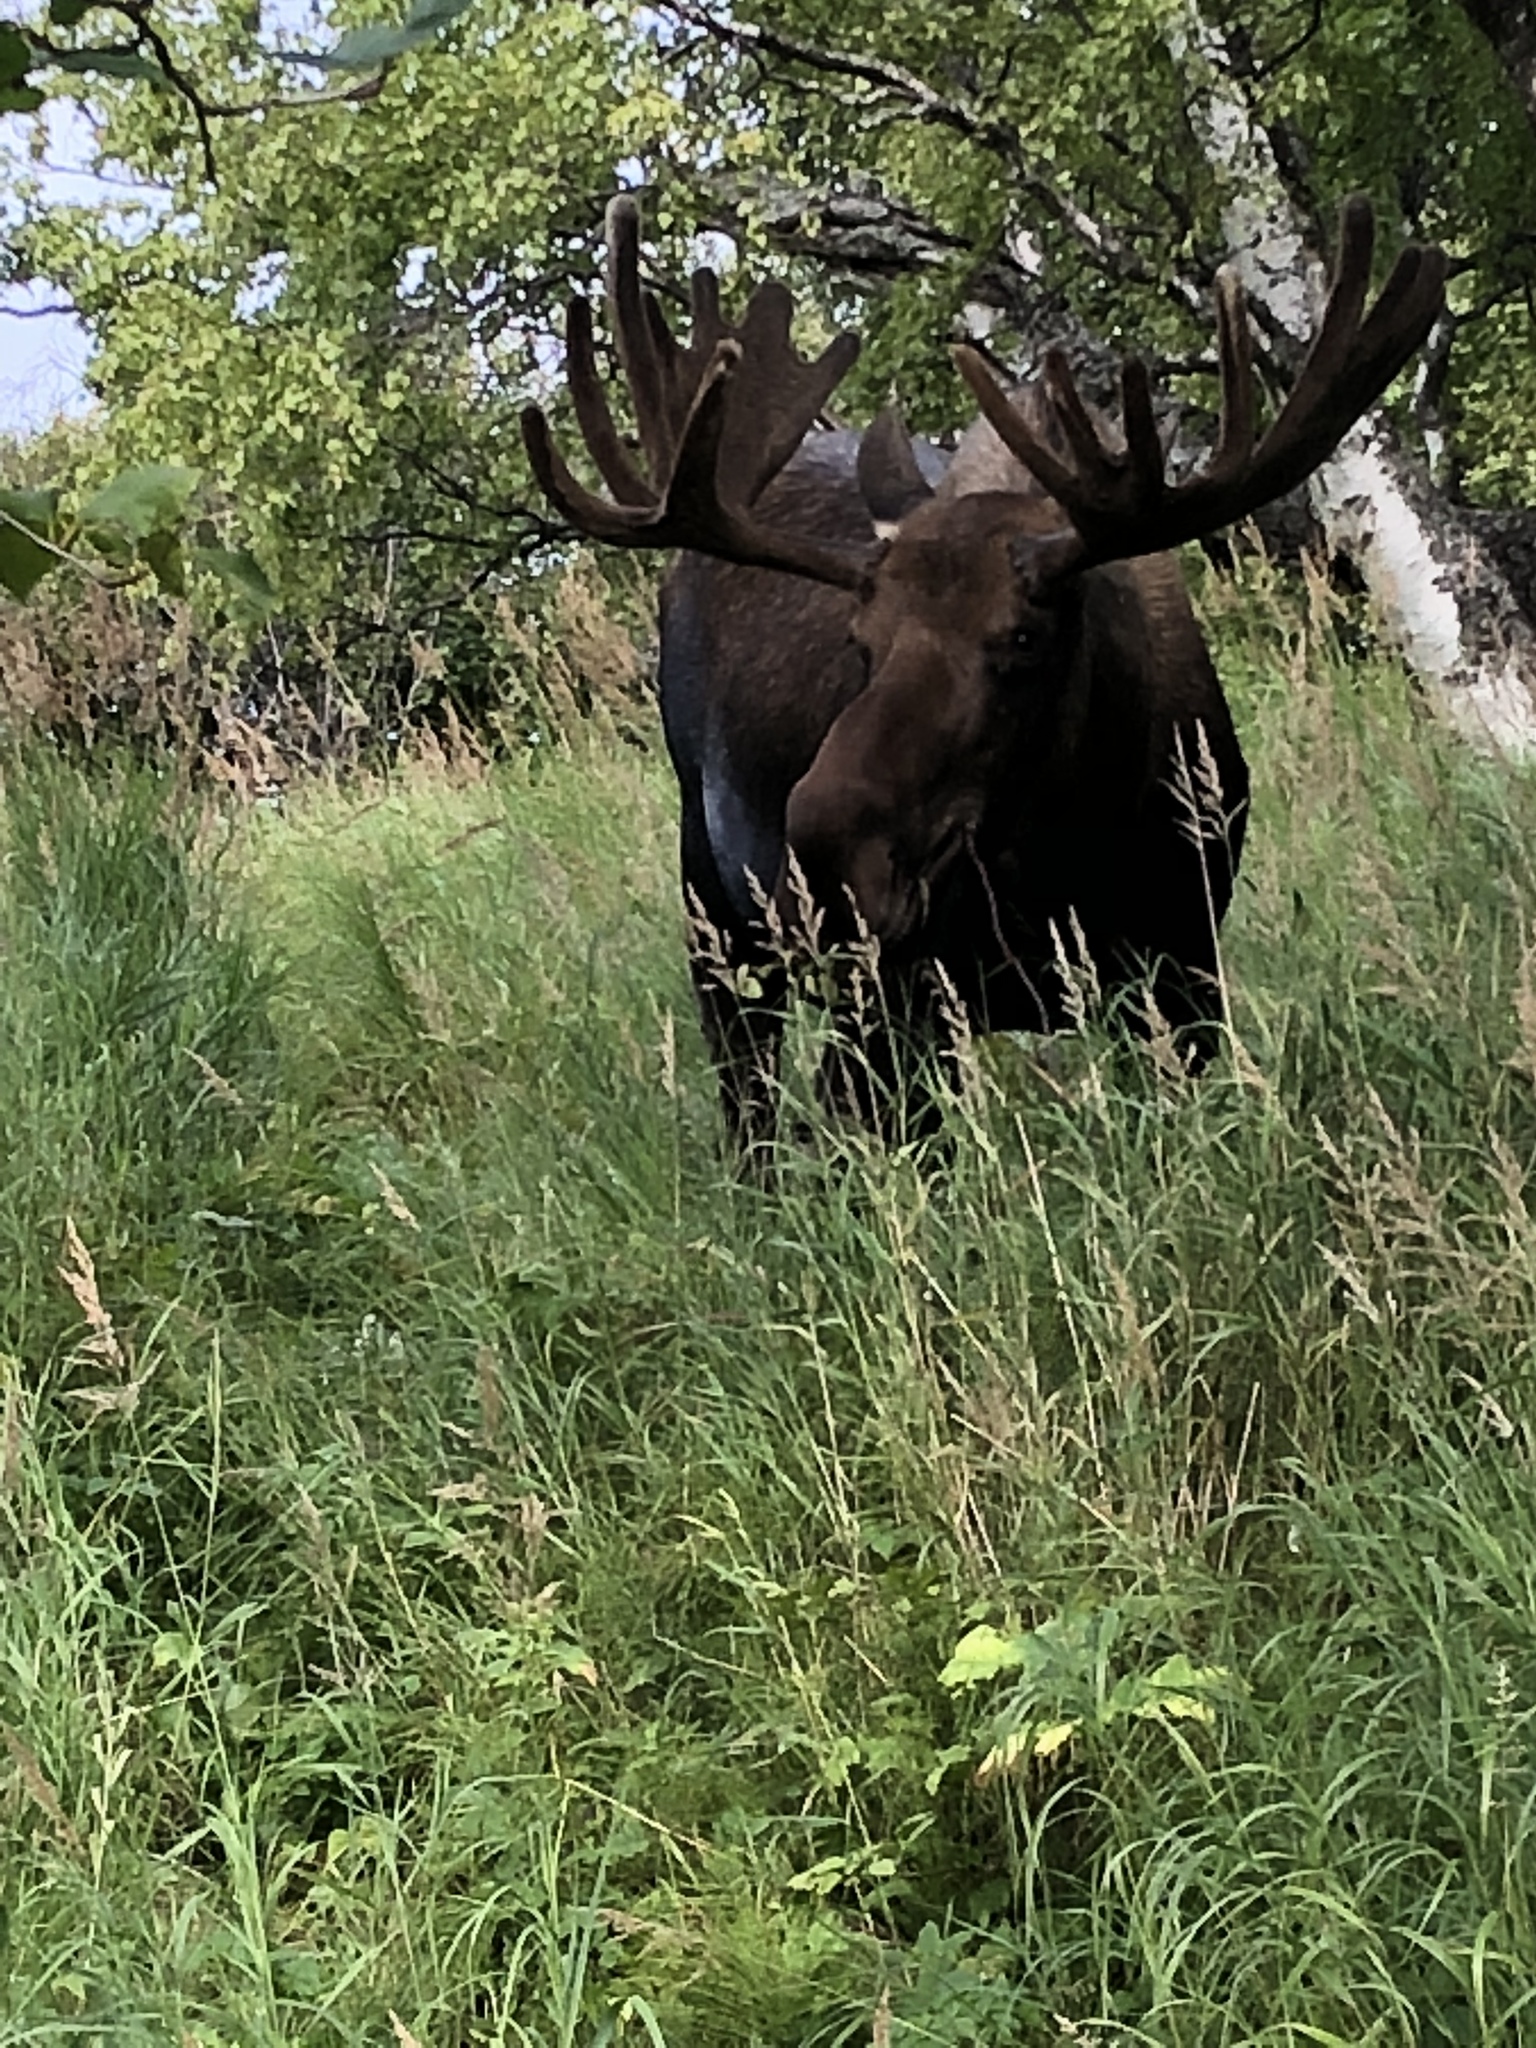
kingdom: Animalia
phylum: Chordata
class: Mammalia
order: Artiodactyla
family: Cervidae
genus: Alces
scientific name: Alces alces
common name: Moose
